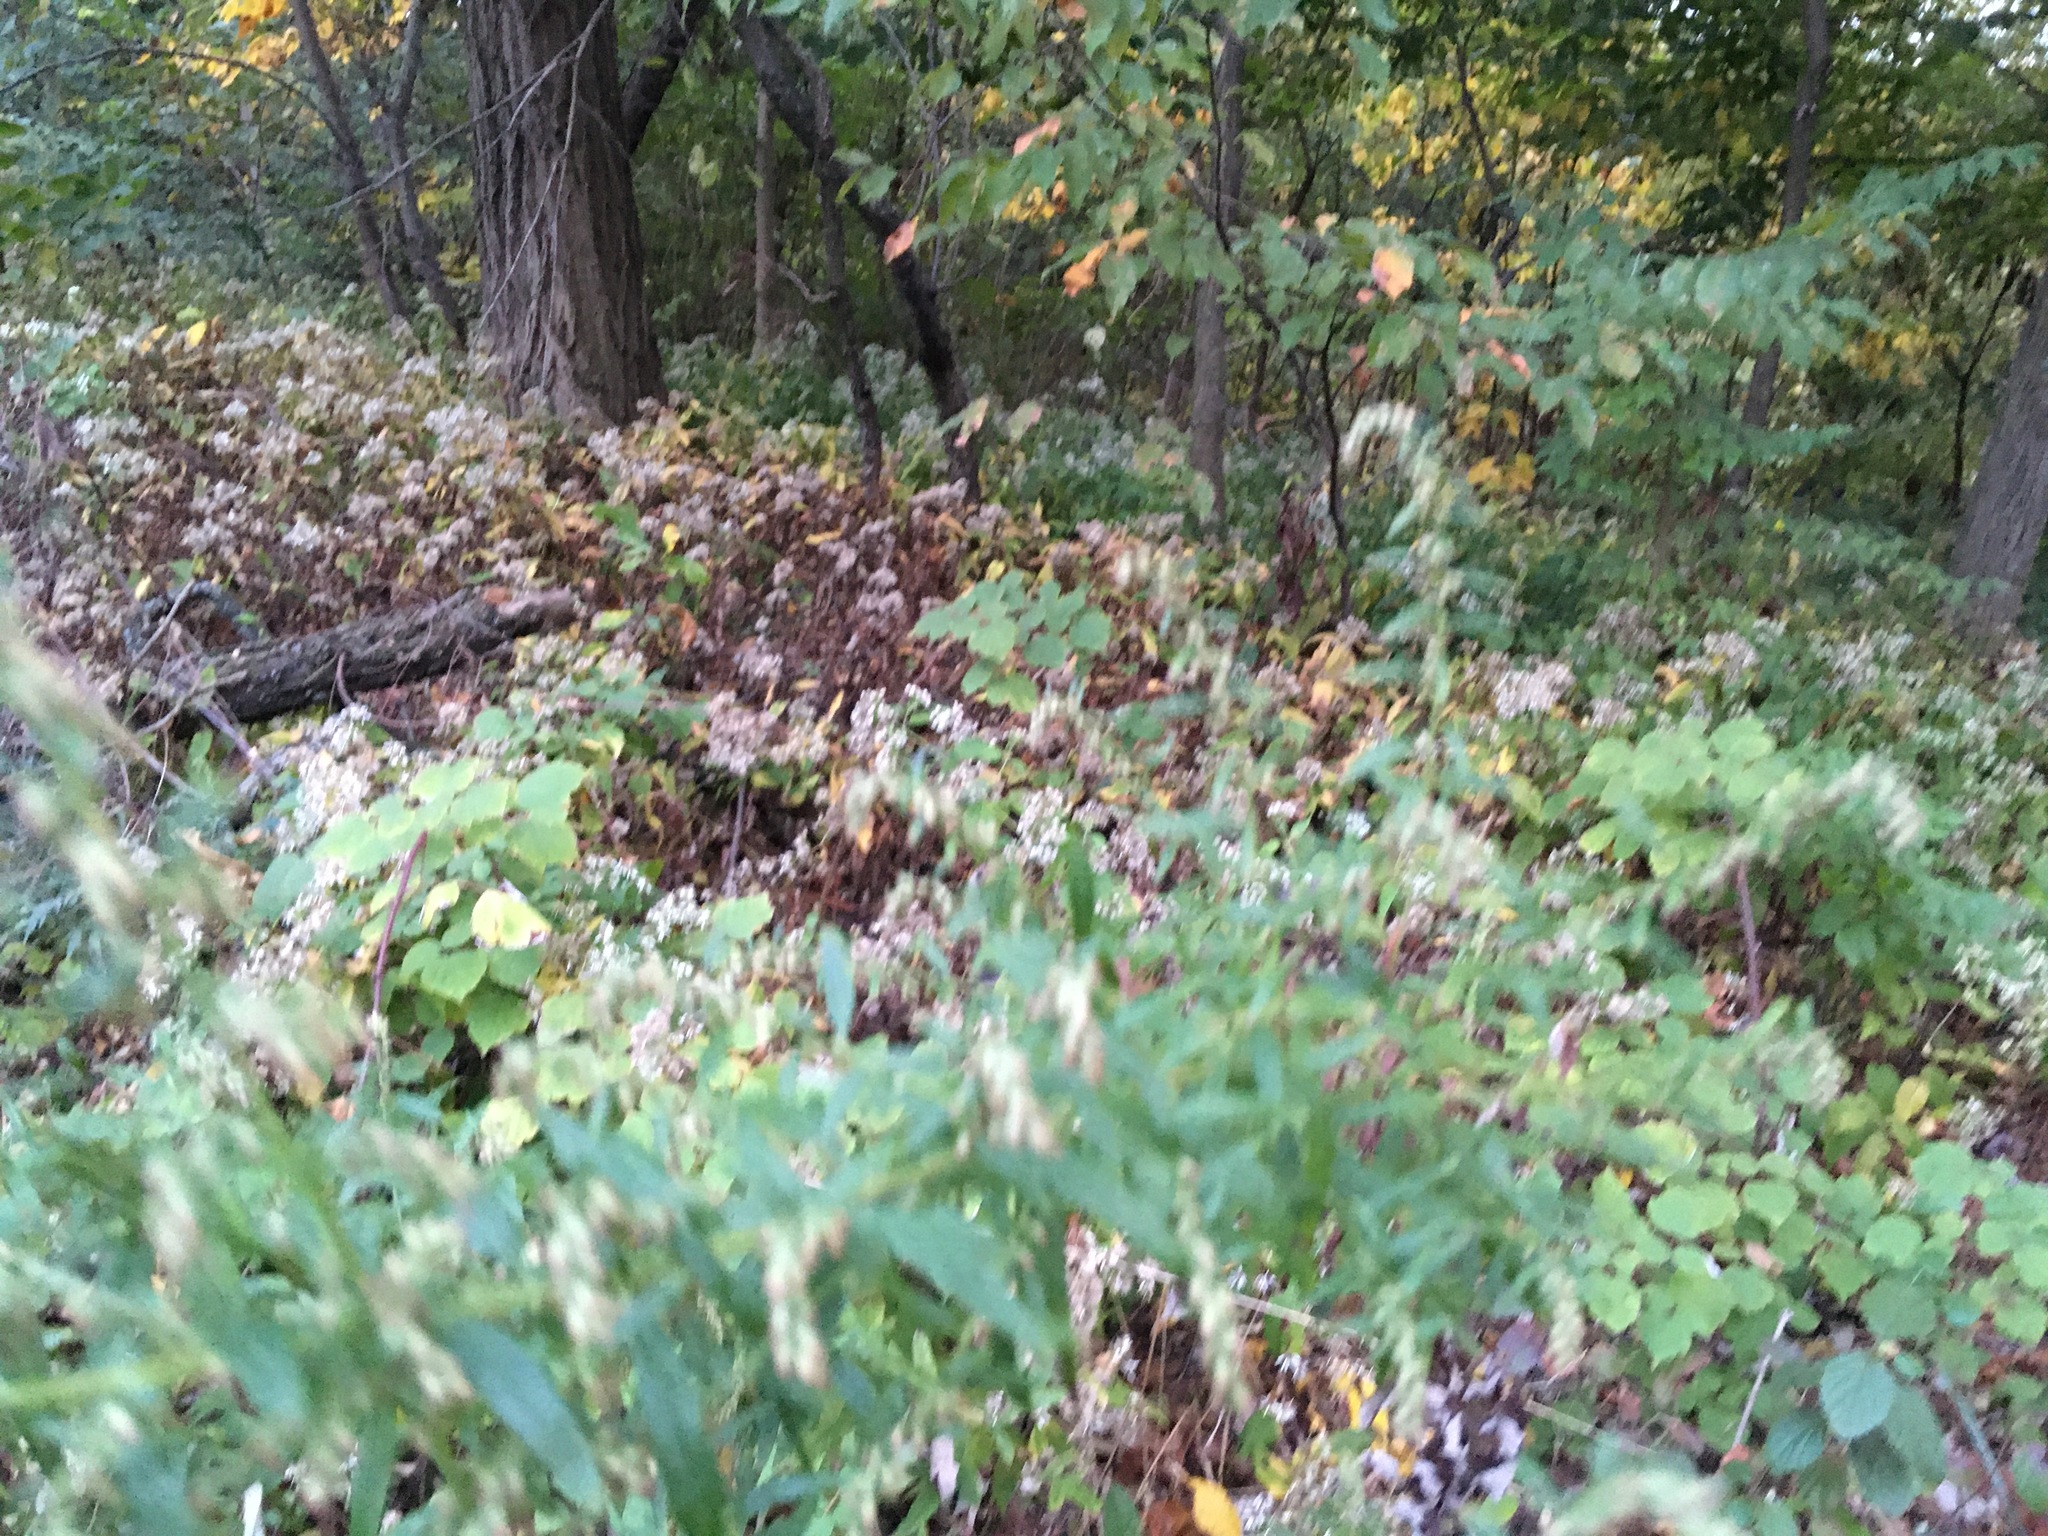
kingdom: Plantae
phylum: Tracheophyta
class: Magnoliopsida
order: Asterales
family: Asteraceae
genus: Artemisia
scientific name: Artemisia vulgaris
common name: Mugwort
